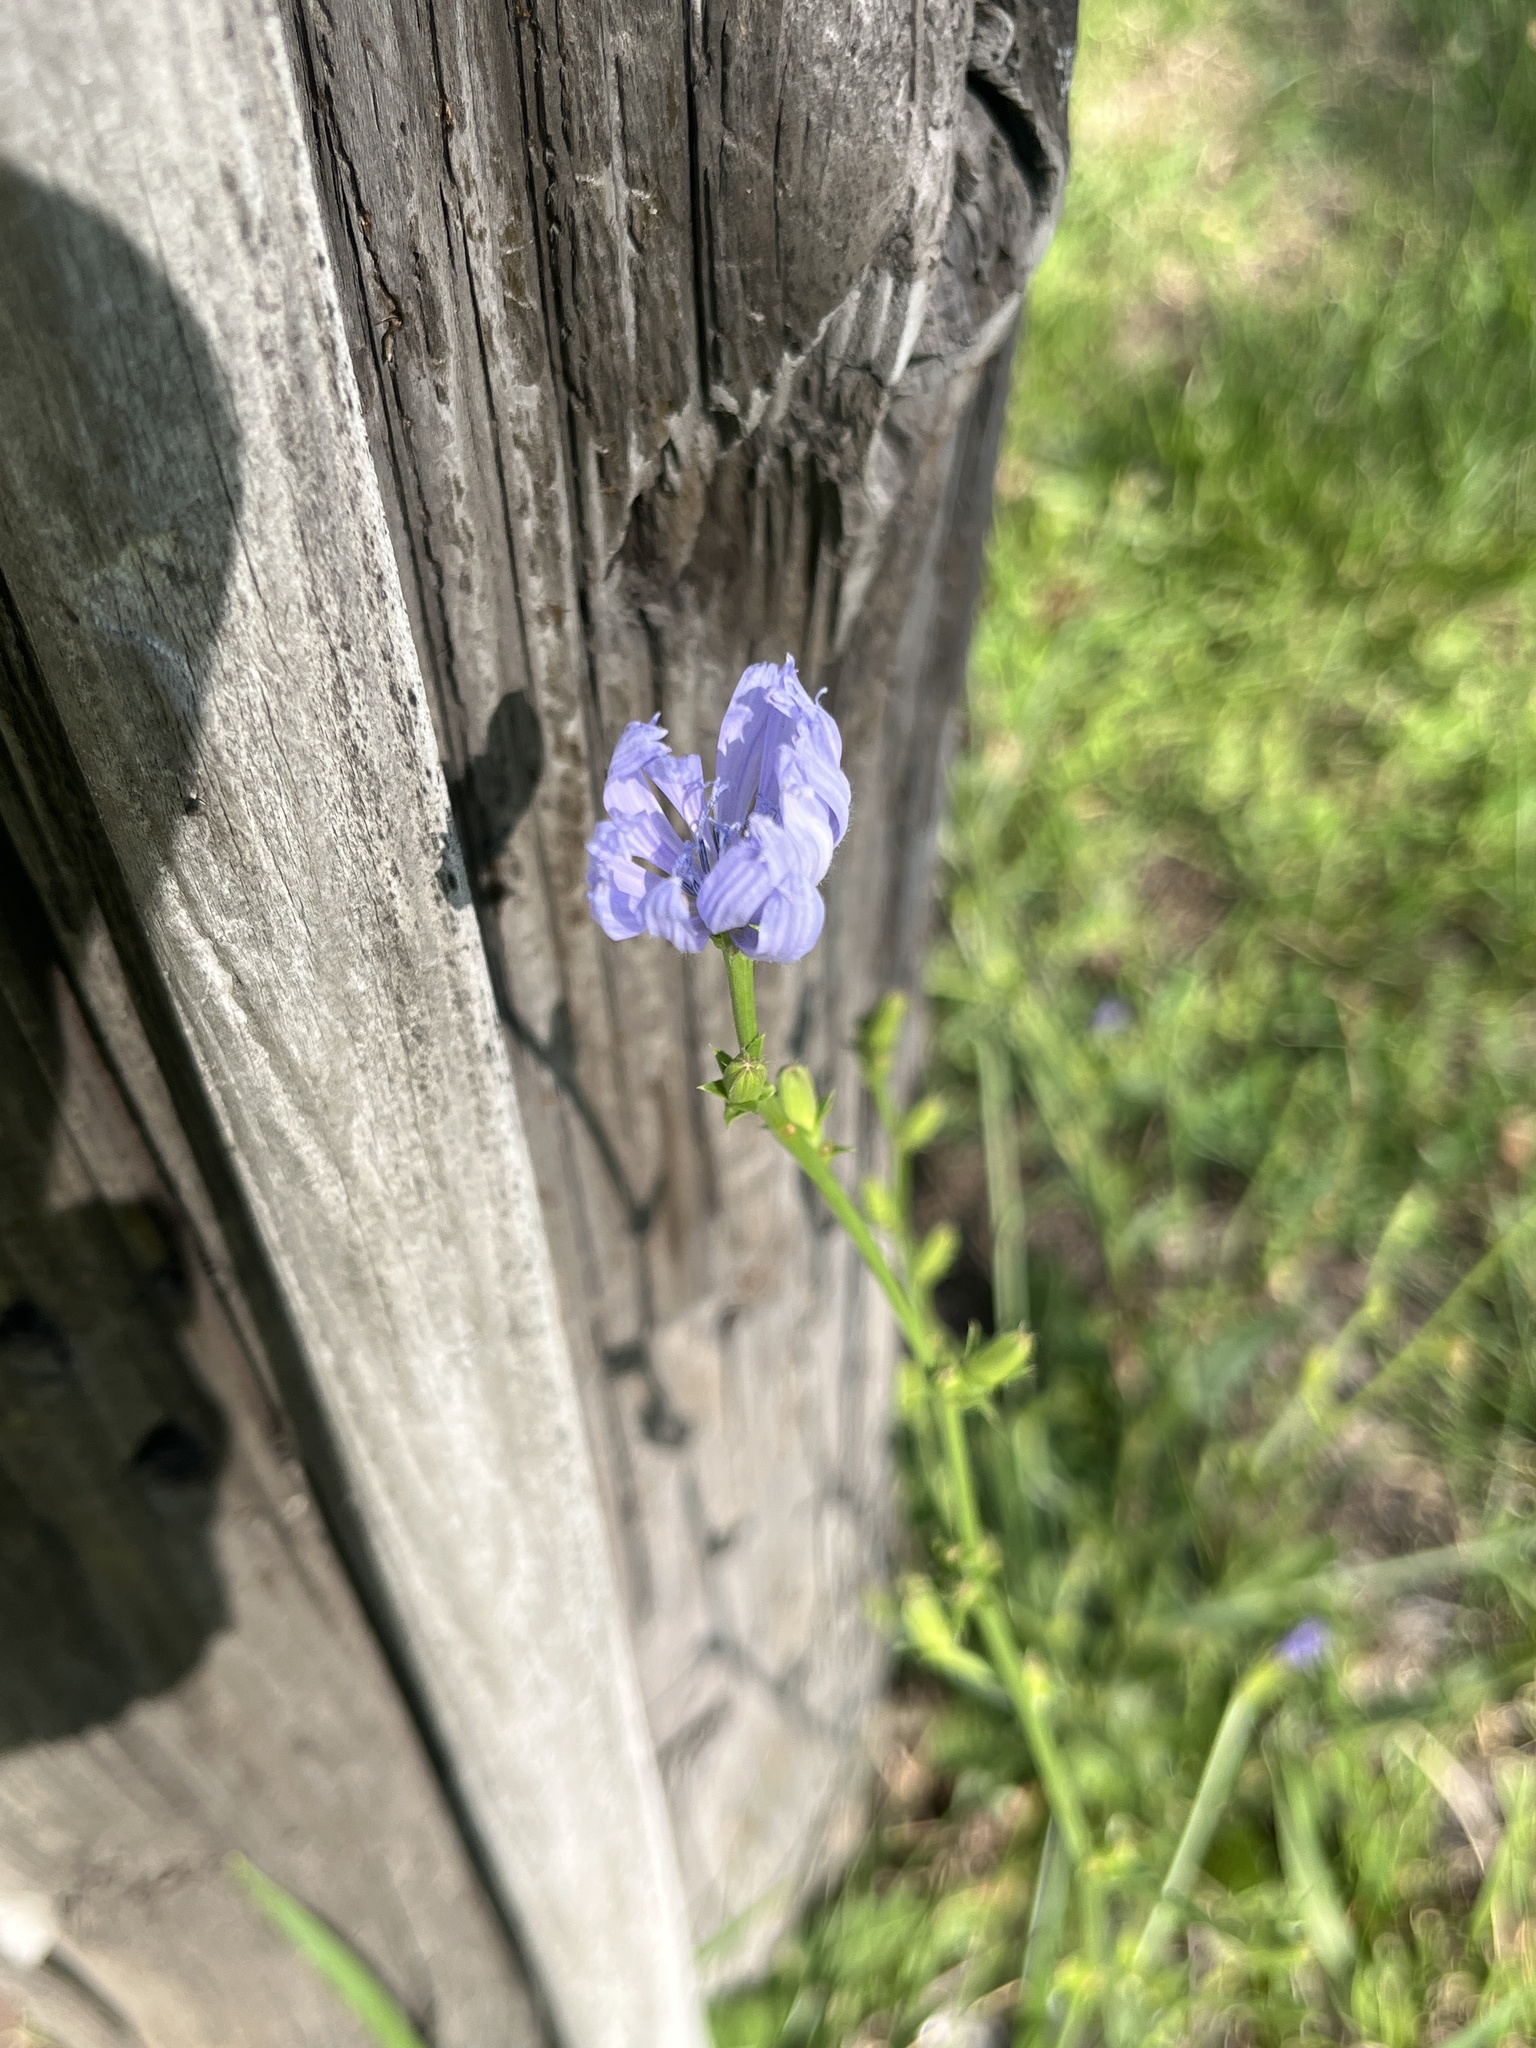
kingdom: Plantae
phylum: Tracheophyta
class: Magnoliopsida
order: Asterales
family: Asteraceae
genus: Cichorium
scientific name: Cichorium intybus
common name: Chicory
